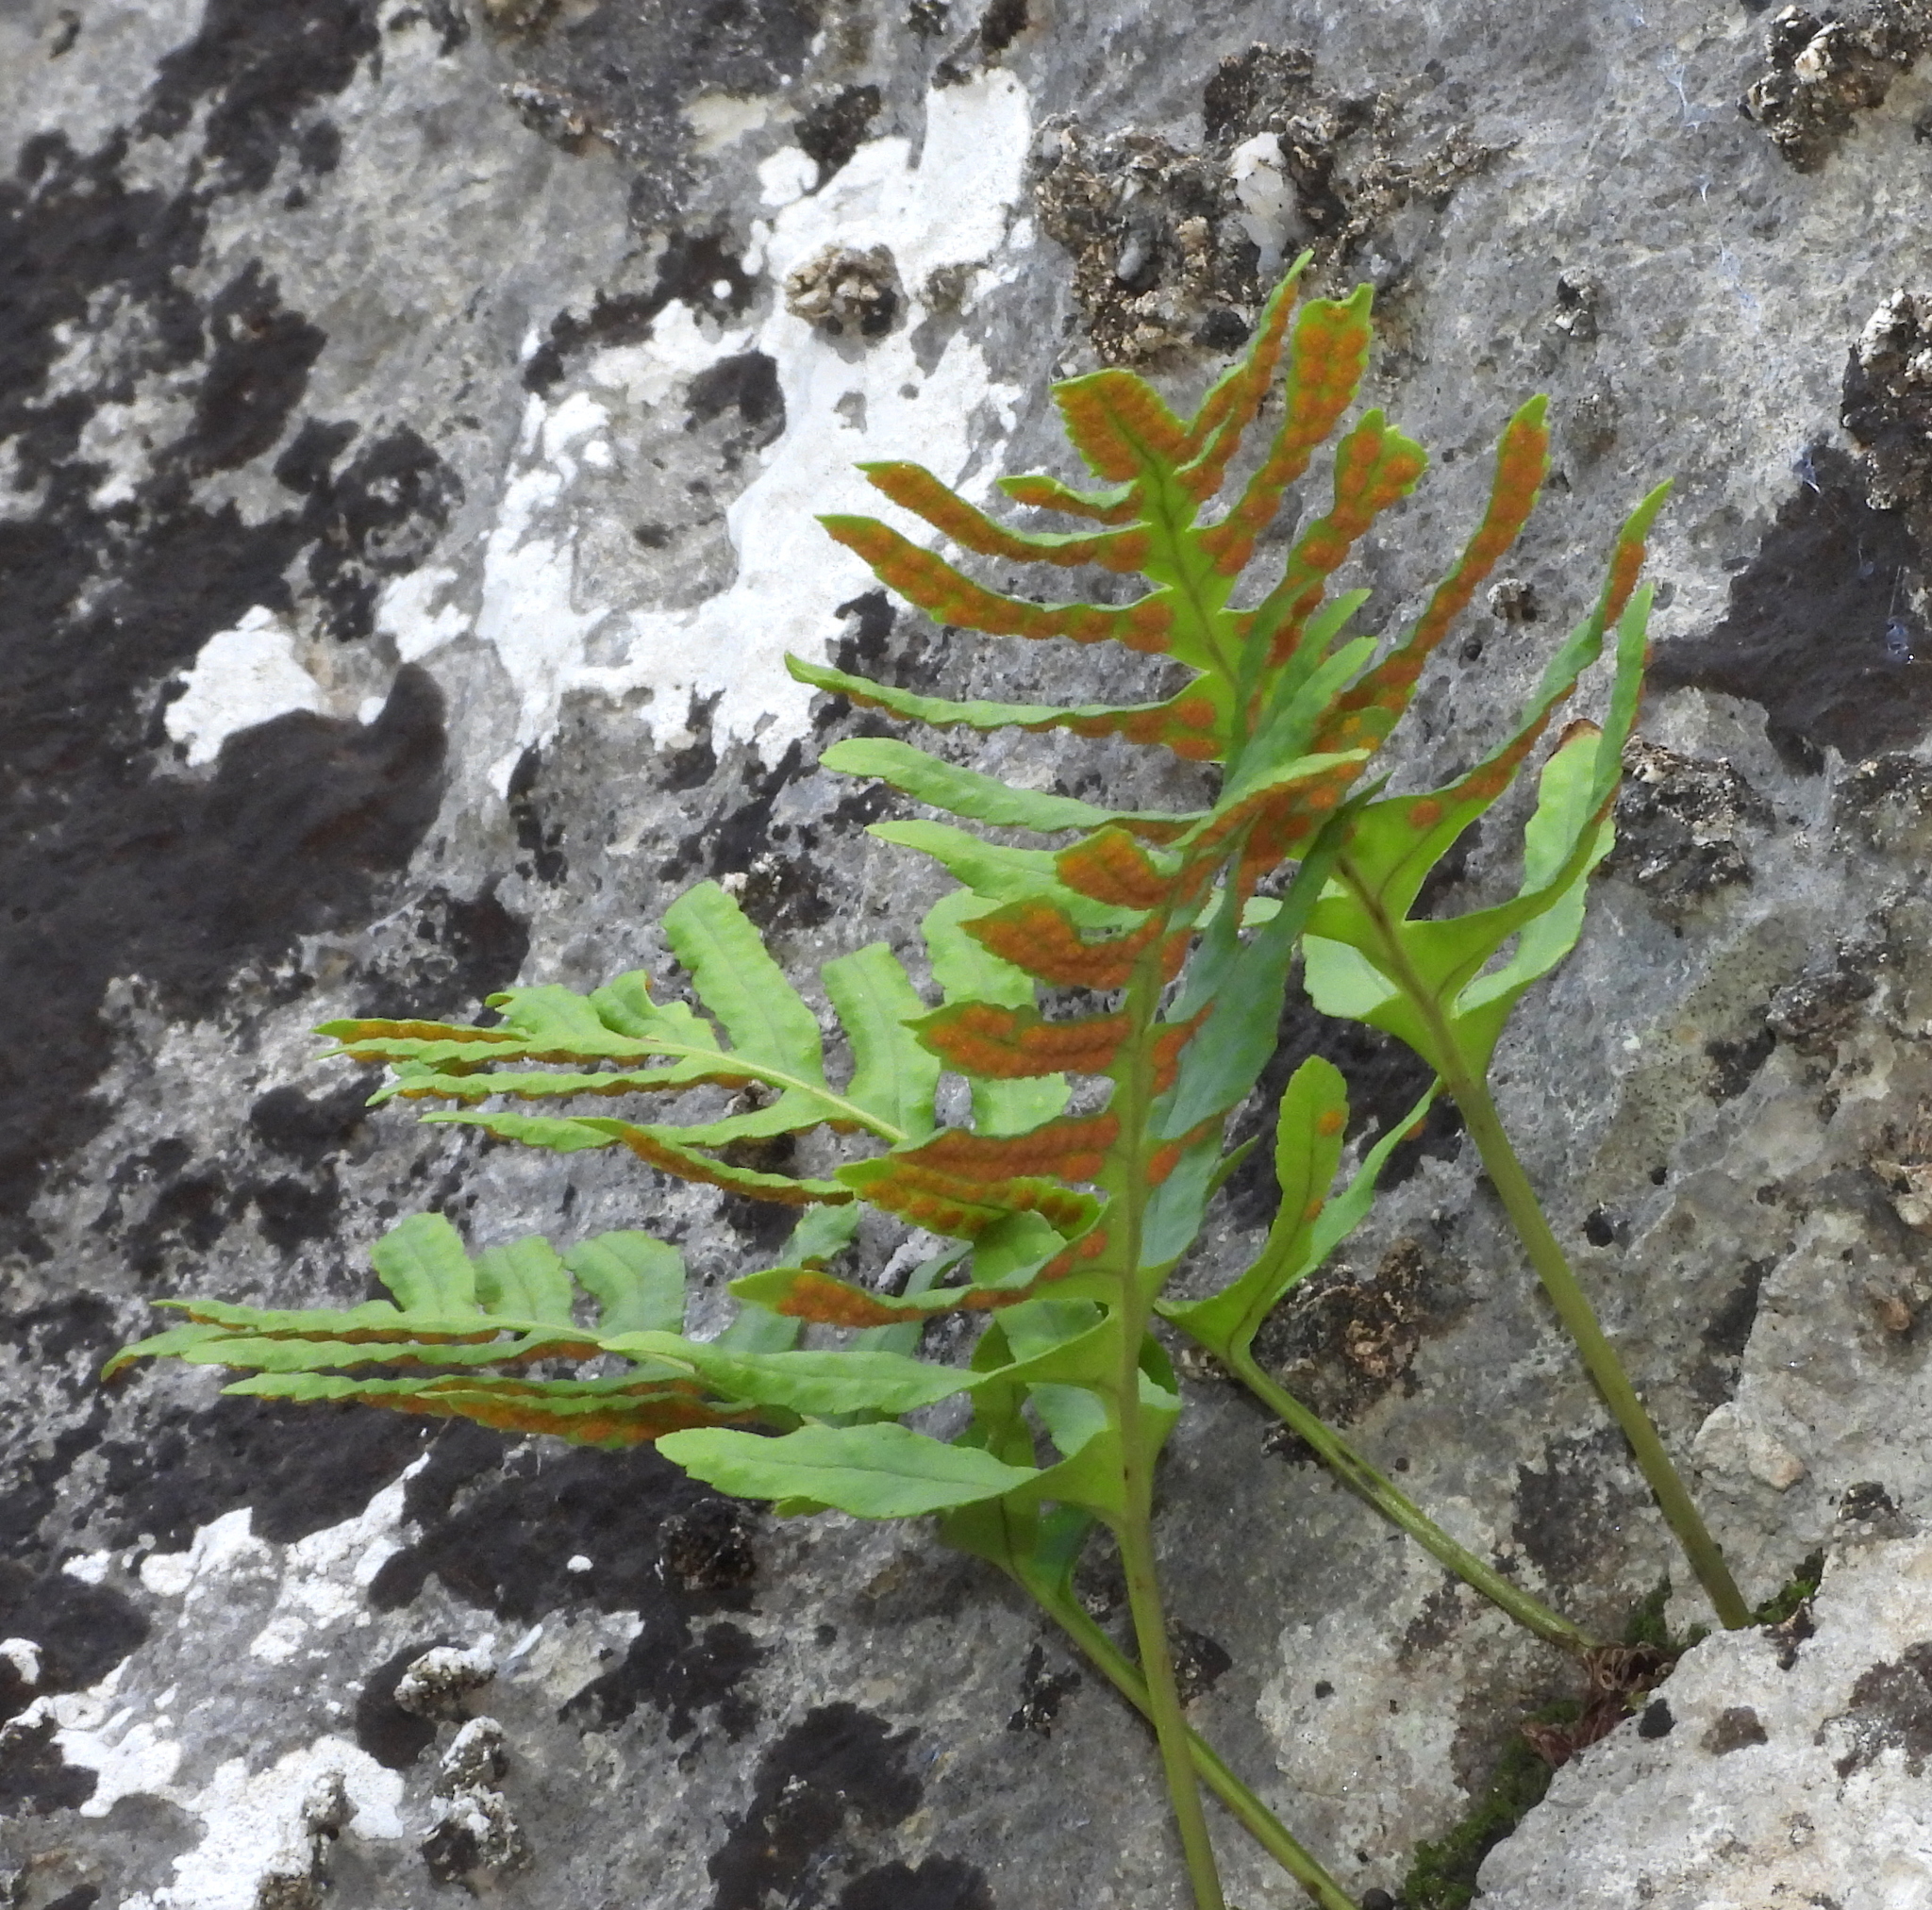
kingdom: Plantae
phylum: Tracheophyta
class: Polypodiopsida
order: Polypodiales
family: Polypodiaceae
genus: Polypodium
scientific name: Polypodium cambricum
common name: Southern polypody
